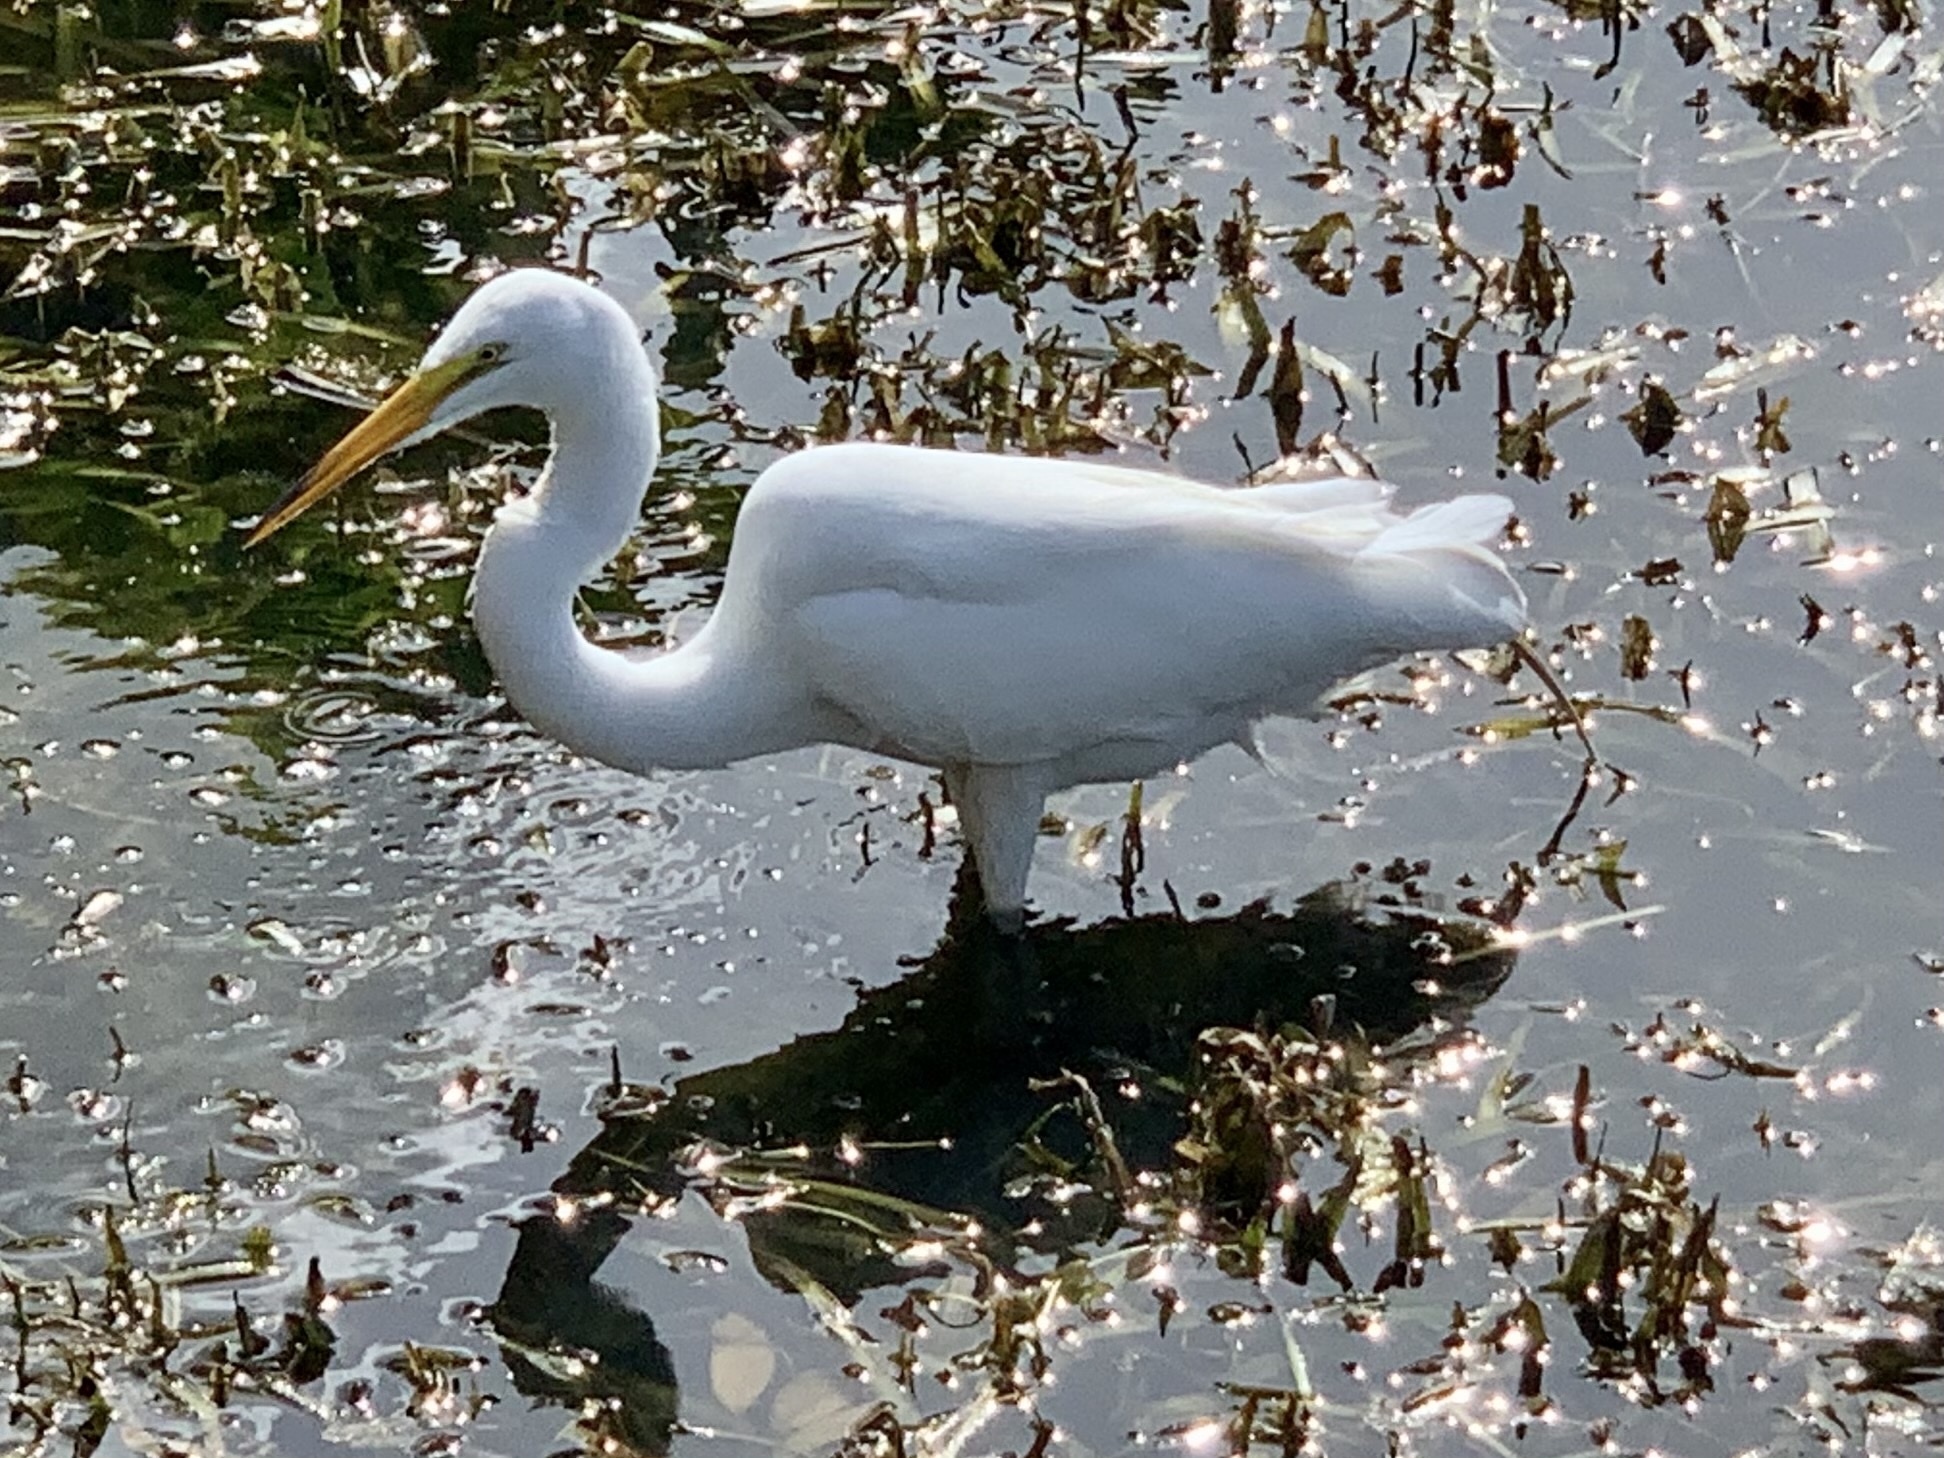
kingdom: Animalia
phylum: Chordata
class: Aves
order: Pelecaniformes
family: Ardeidae
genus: Ardea
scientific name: Ardea alba
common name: Great egret
